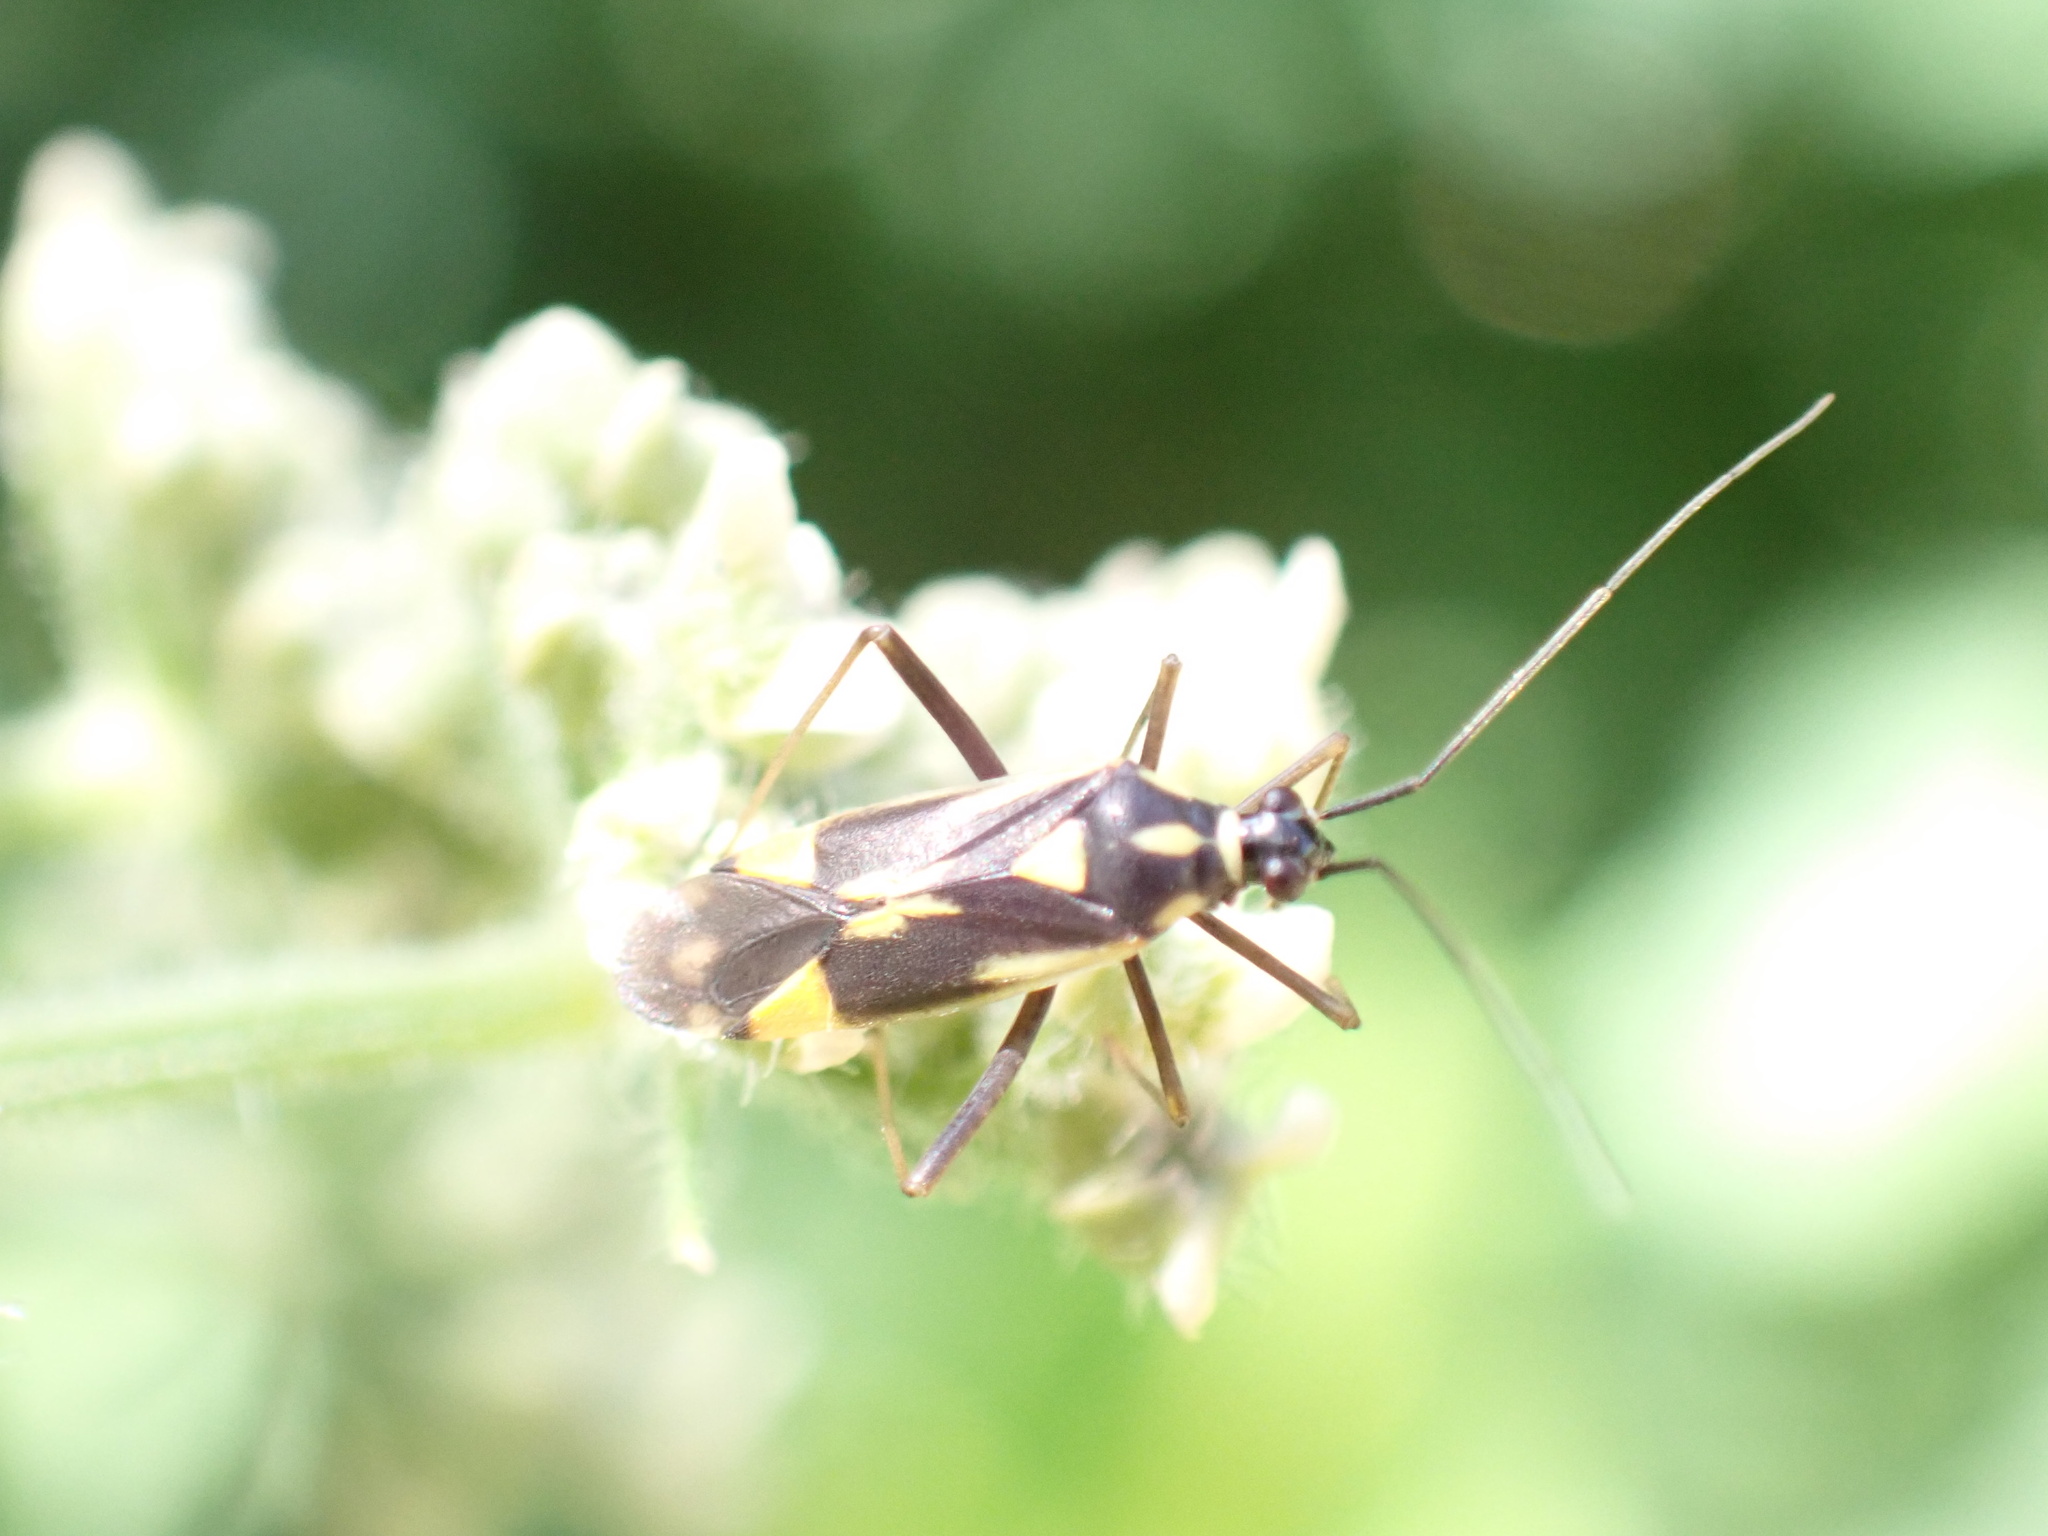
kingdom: Animalia
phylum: Arthropoda
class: Insecta
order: Hemiptera
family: Miridae
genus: Grypocoris
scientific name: Grypocoris stysi
